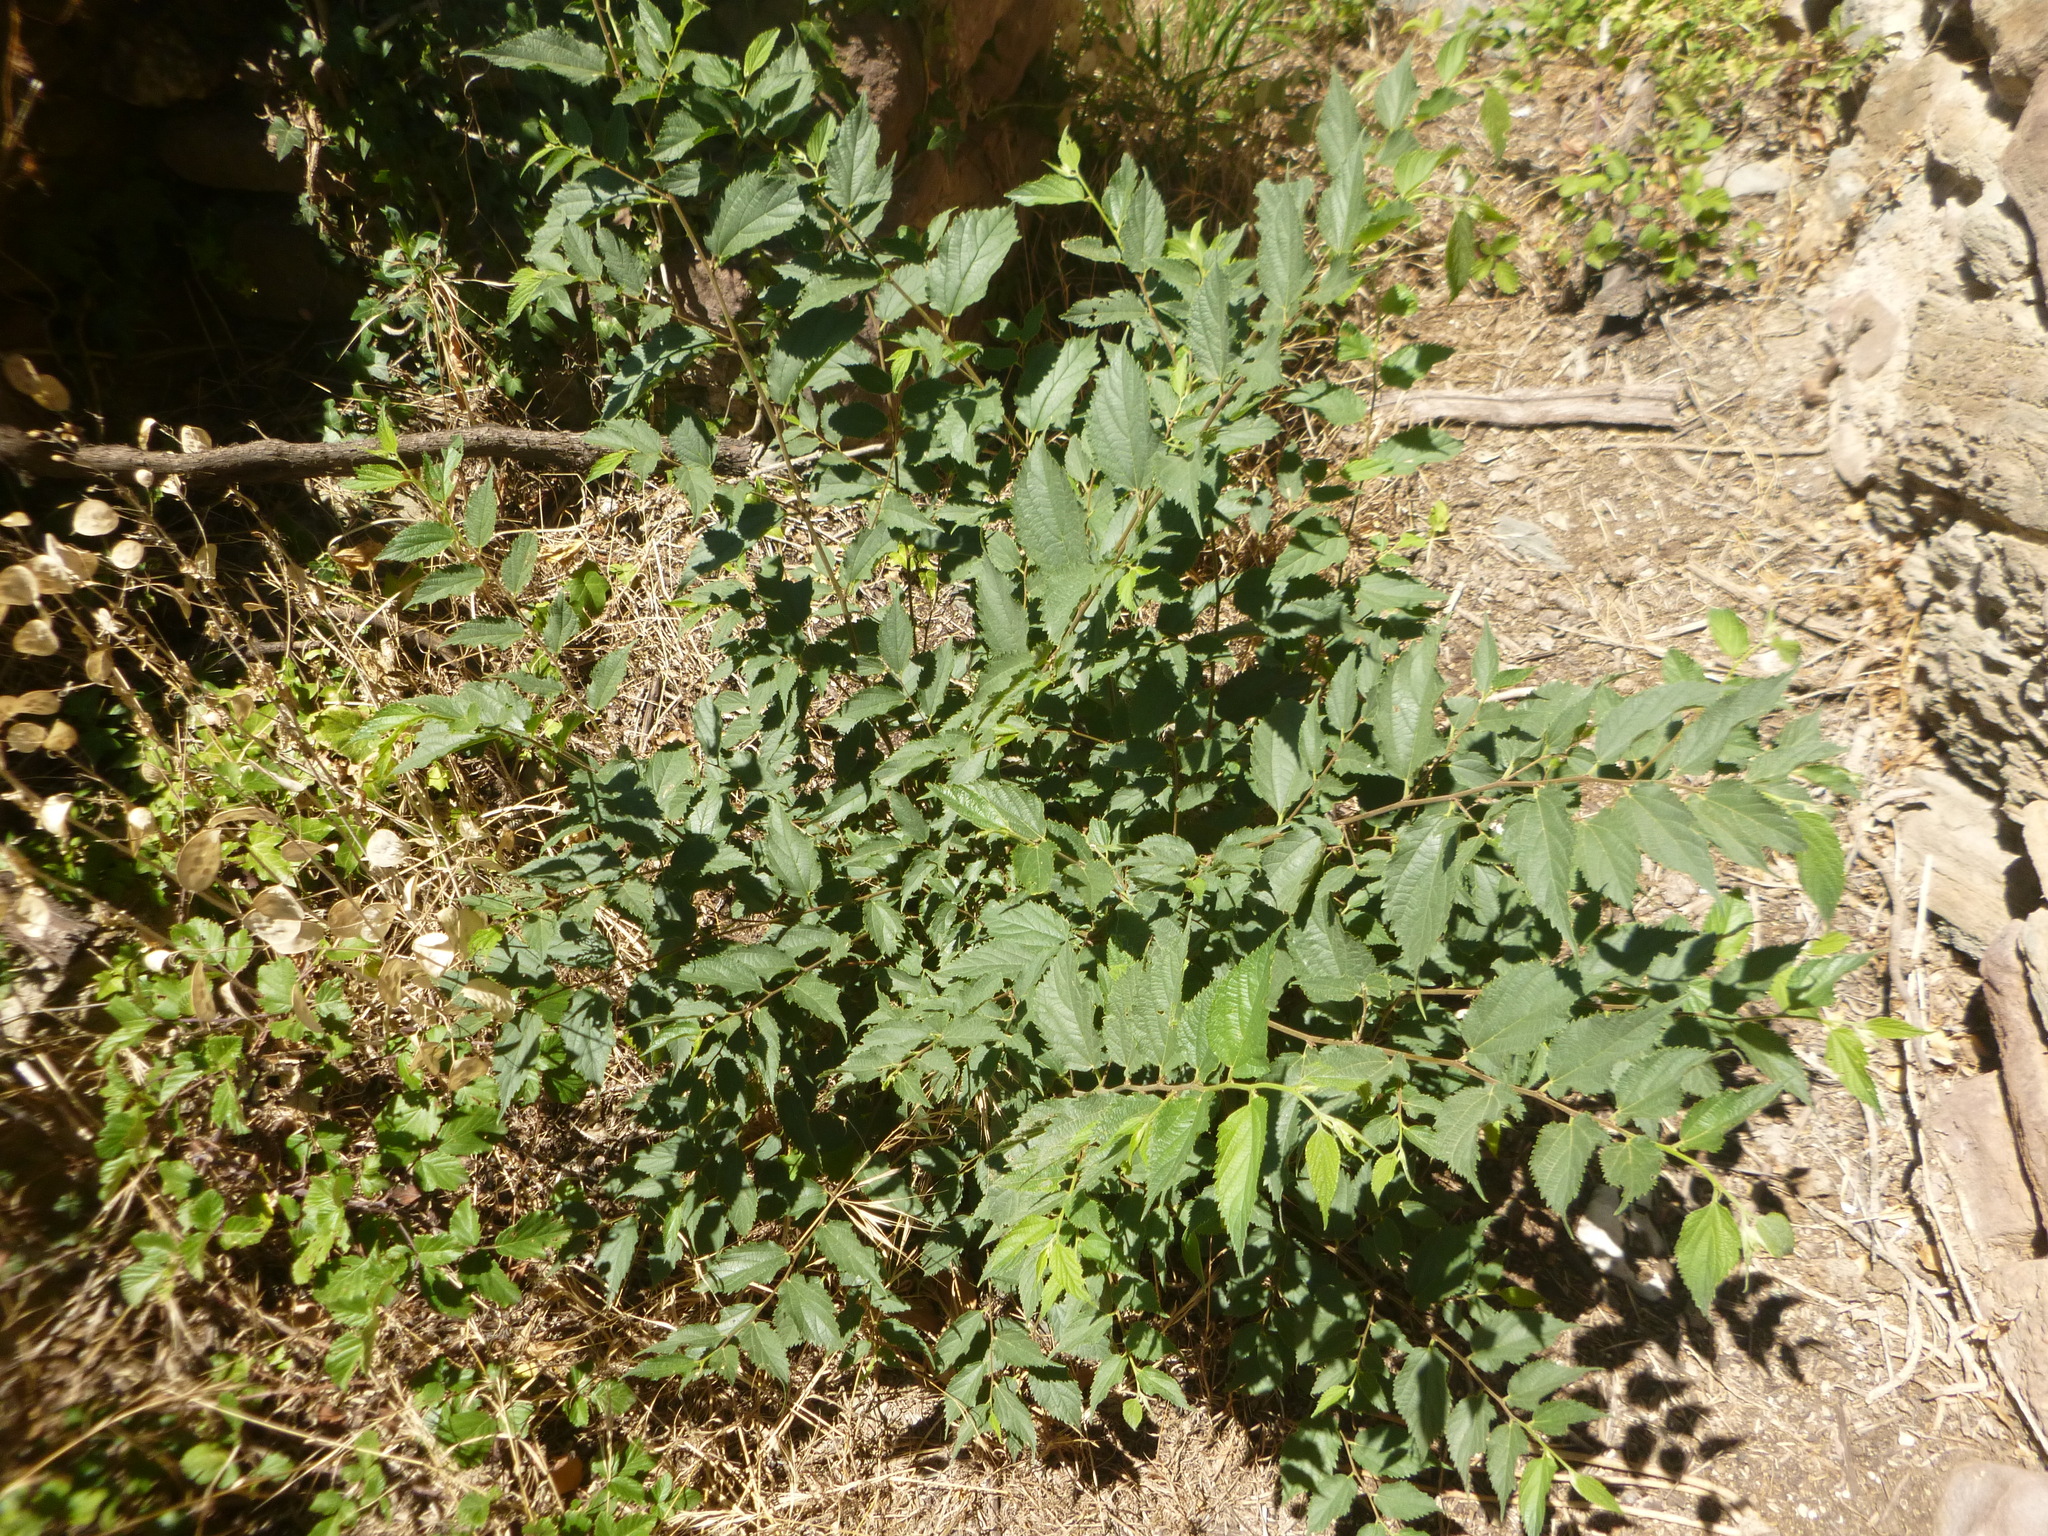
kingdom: Plantae
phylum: Tracheophyta
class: Magnoliopsida
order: Rosales
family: Cannabaceae
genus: Celtis
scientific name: Celtis australis
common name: European hackberry
